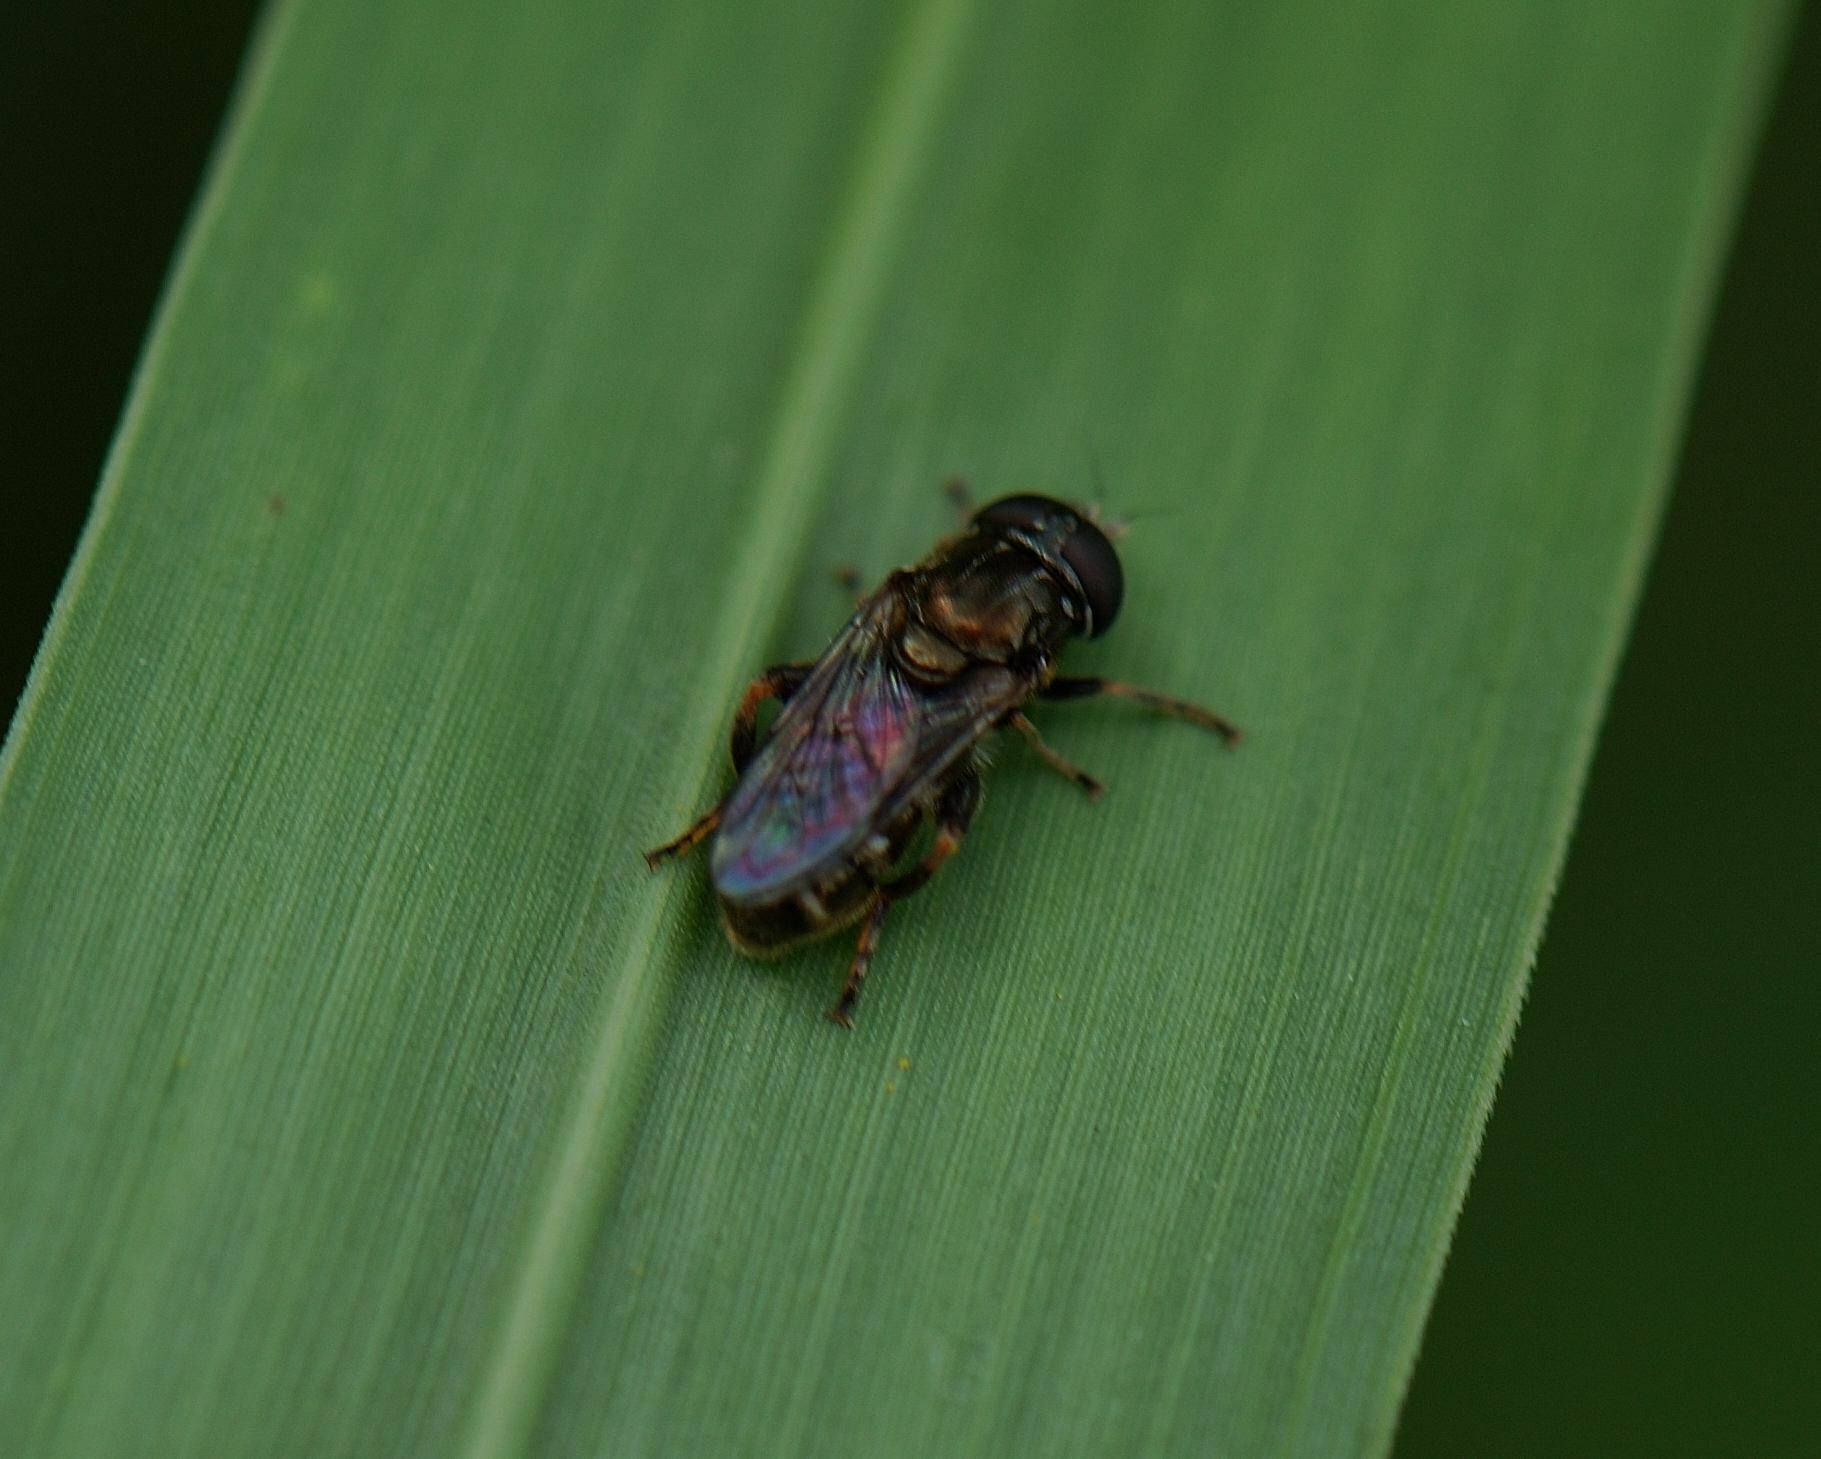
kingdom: Animalia
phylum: Arthropoda
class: Insecta
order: Diptera
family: Syrphidae
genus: Eumerus
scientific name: Eumerus
